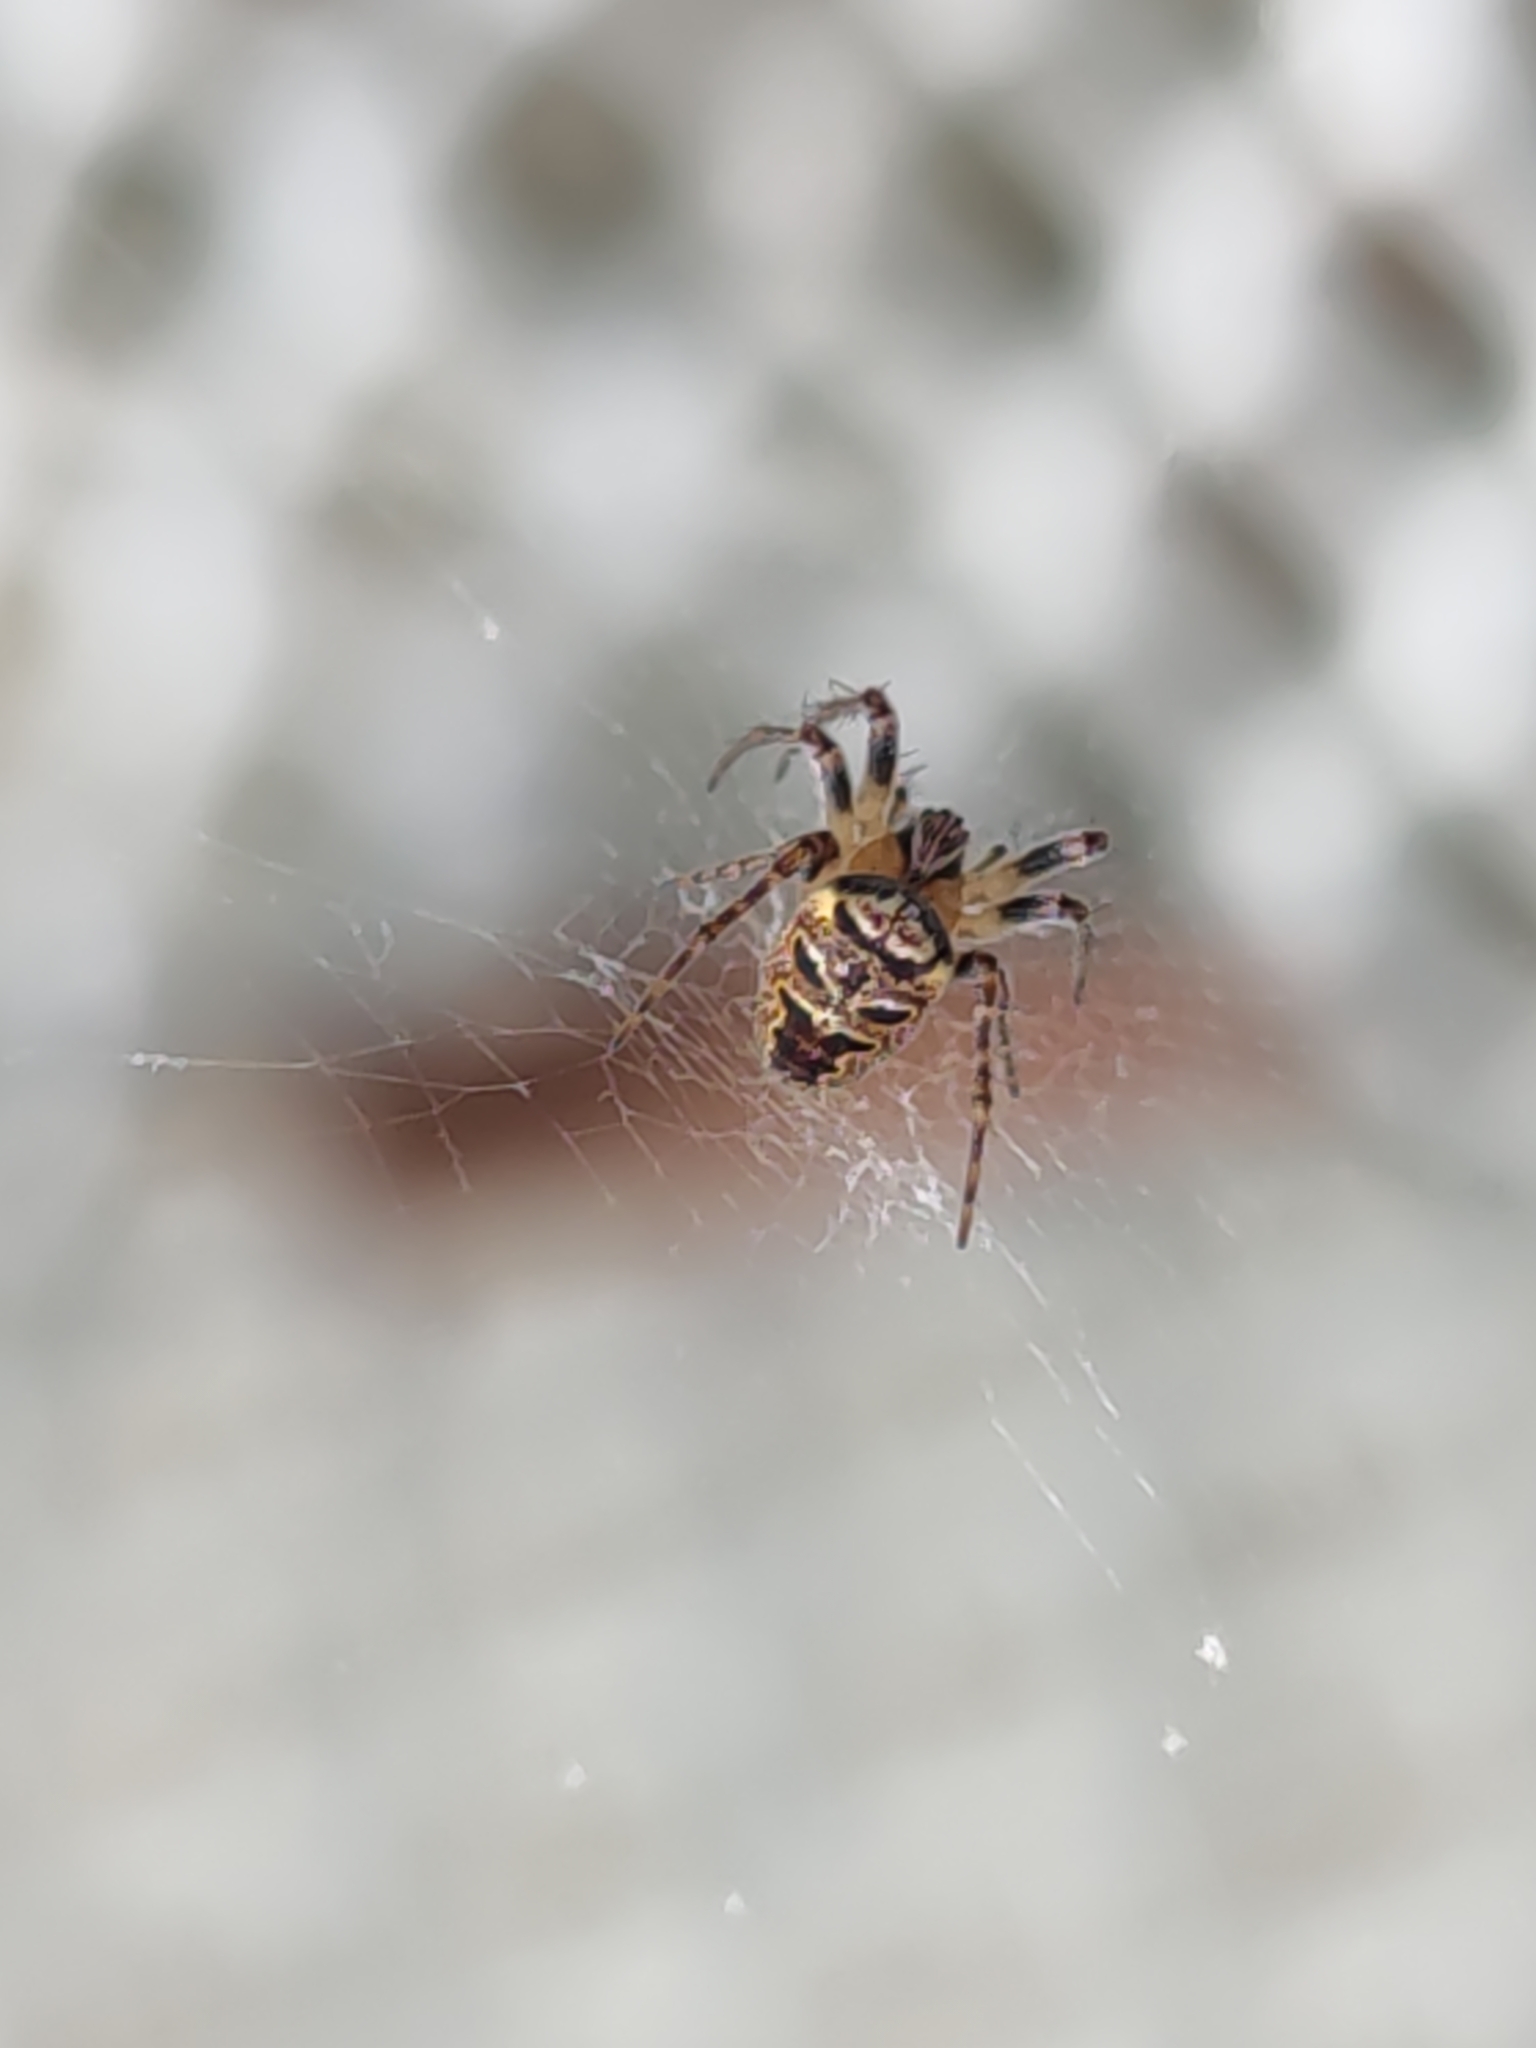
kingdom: Animalia
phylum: Arthropoda
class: Arachnida
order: Araneae
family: Araneidae
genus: Zilla
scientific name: Zilla diodia
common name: Zilla diodia
